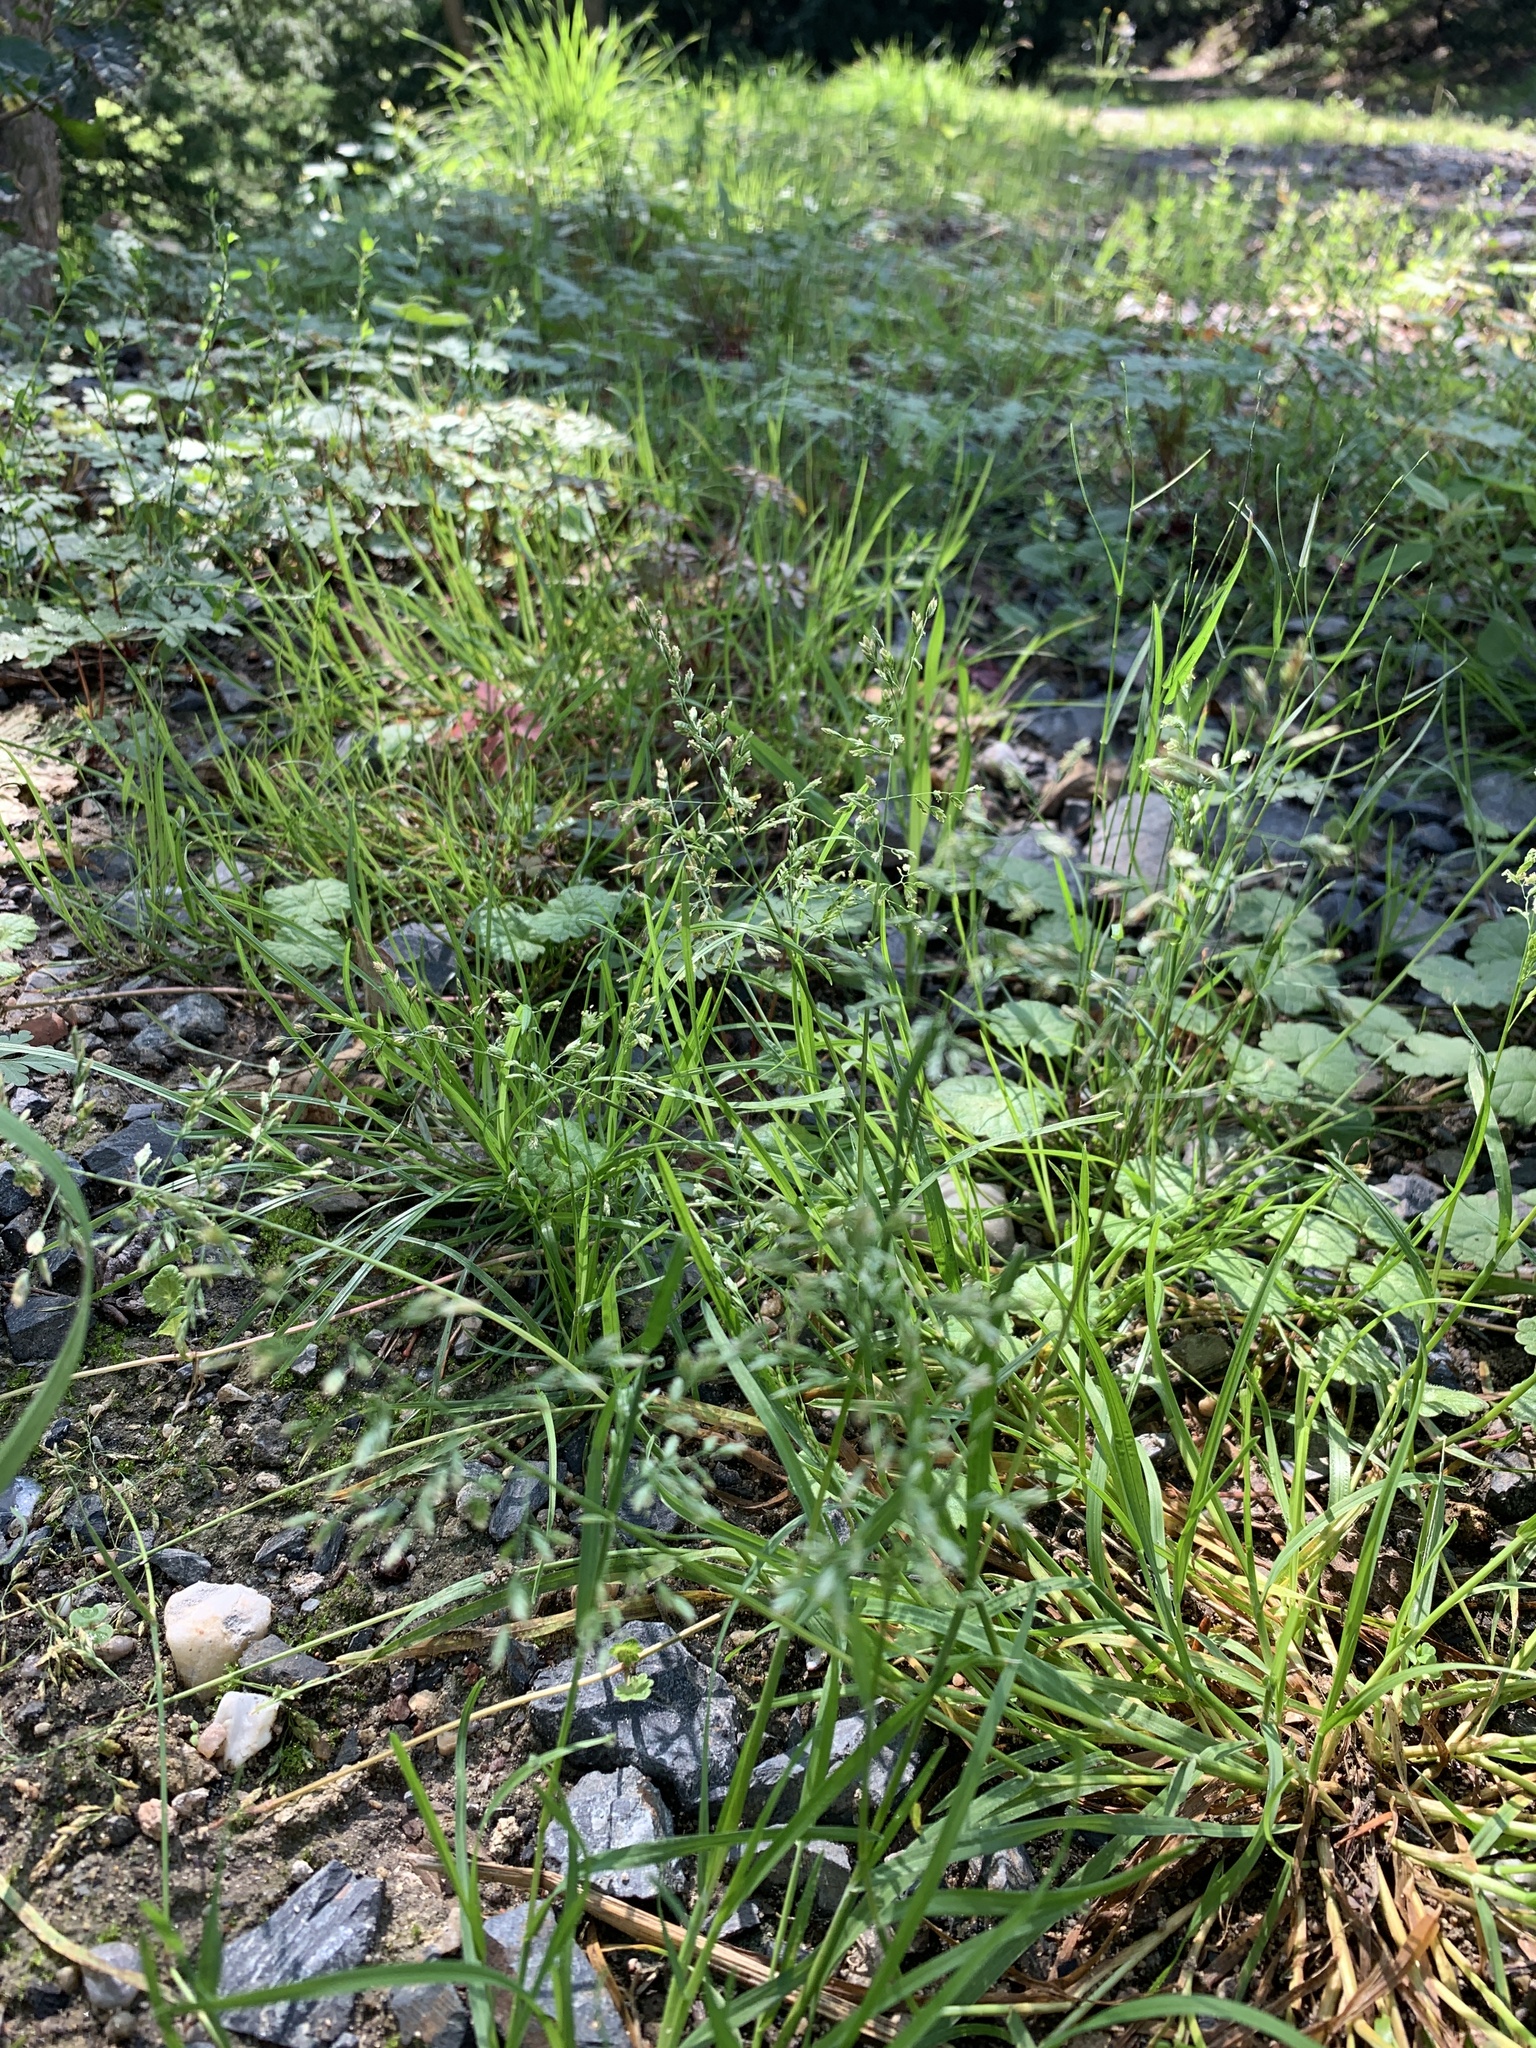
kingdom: Plantae
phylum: Tracheophyta
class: Liliopsida
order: Poales
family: Poaceae
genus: Poa
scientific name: Poa annua
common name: Annual bluegrass
